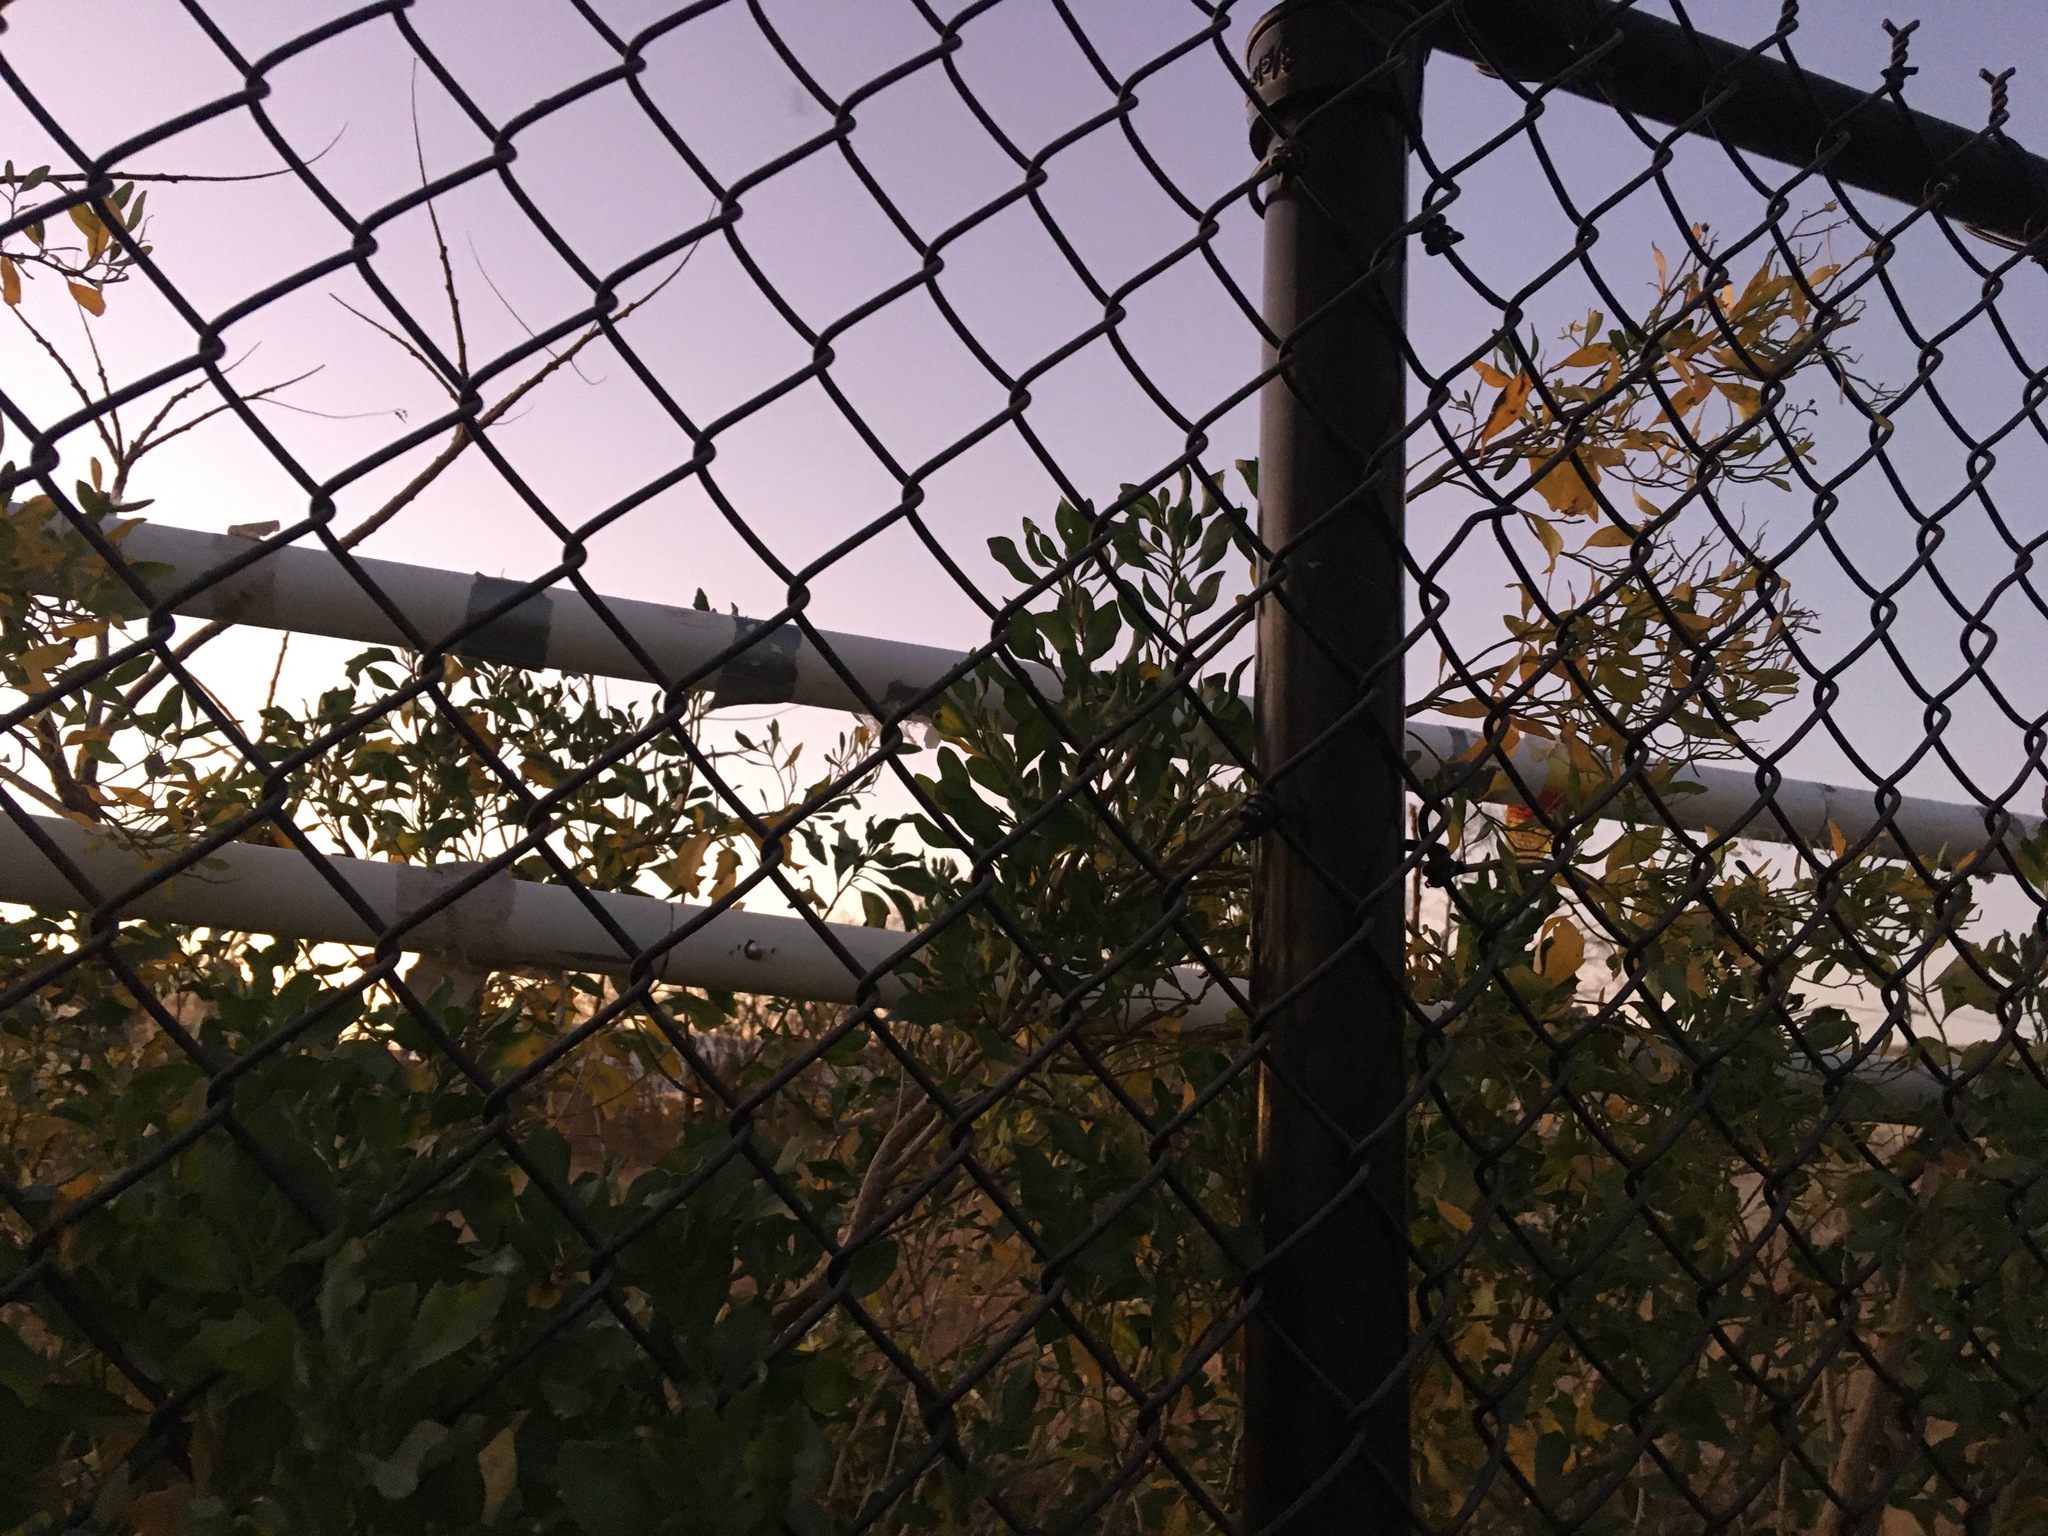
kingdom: Plantae
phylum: Tracheophyta
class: Magnoliopsida
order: Asterales
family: Asteraceae
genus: Baccharis
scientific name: Baccharis halimifolia
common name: Eastern baccharis
